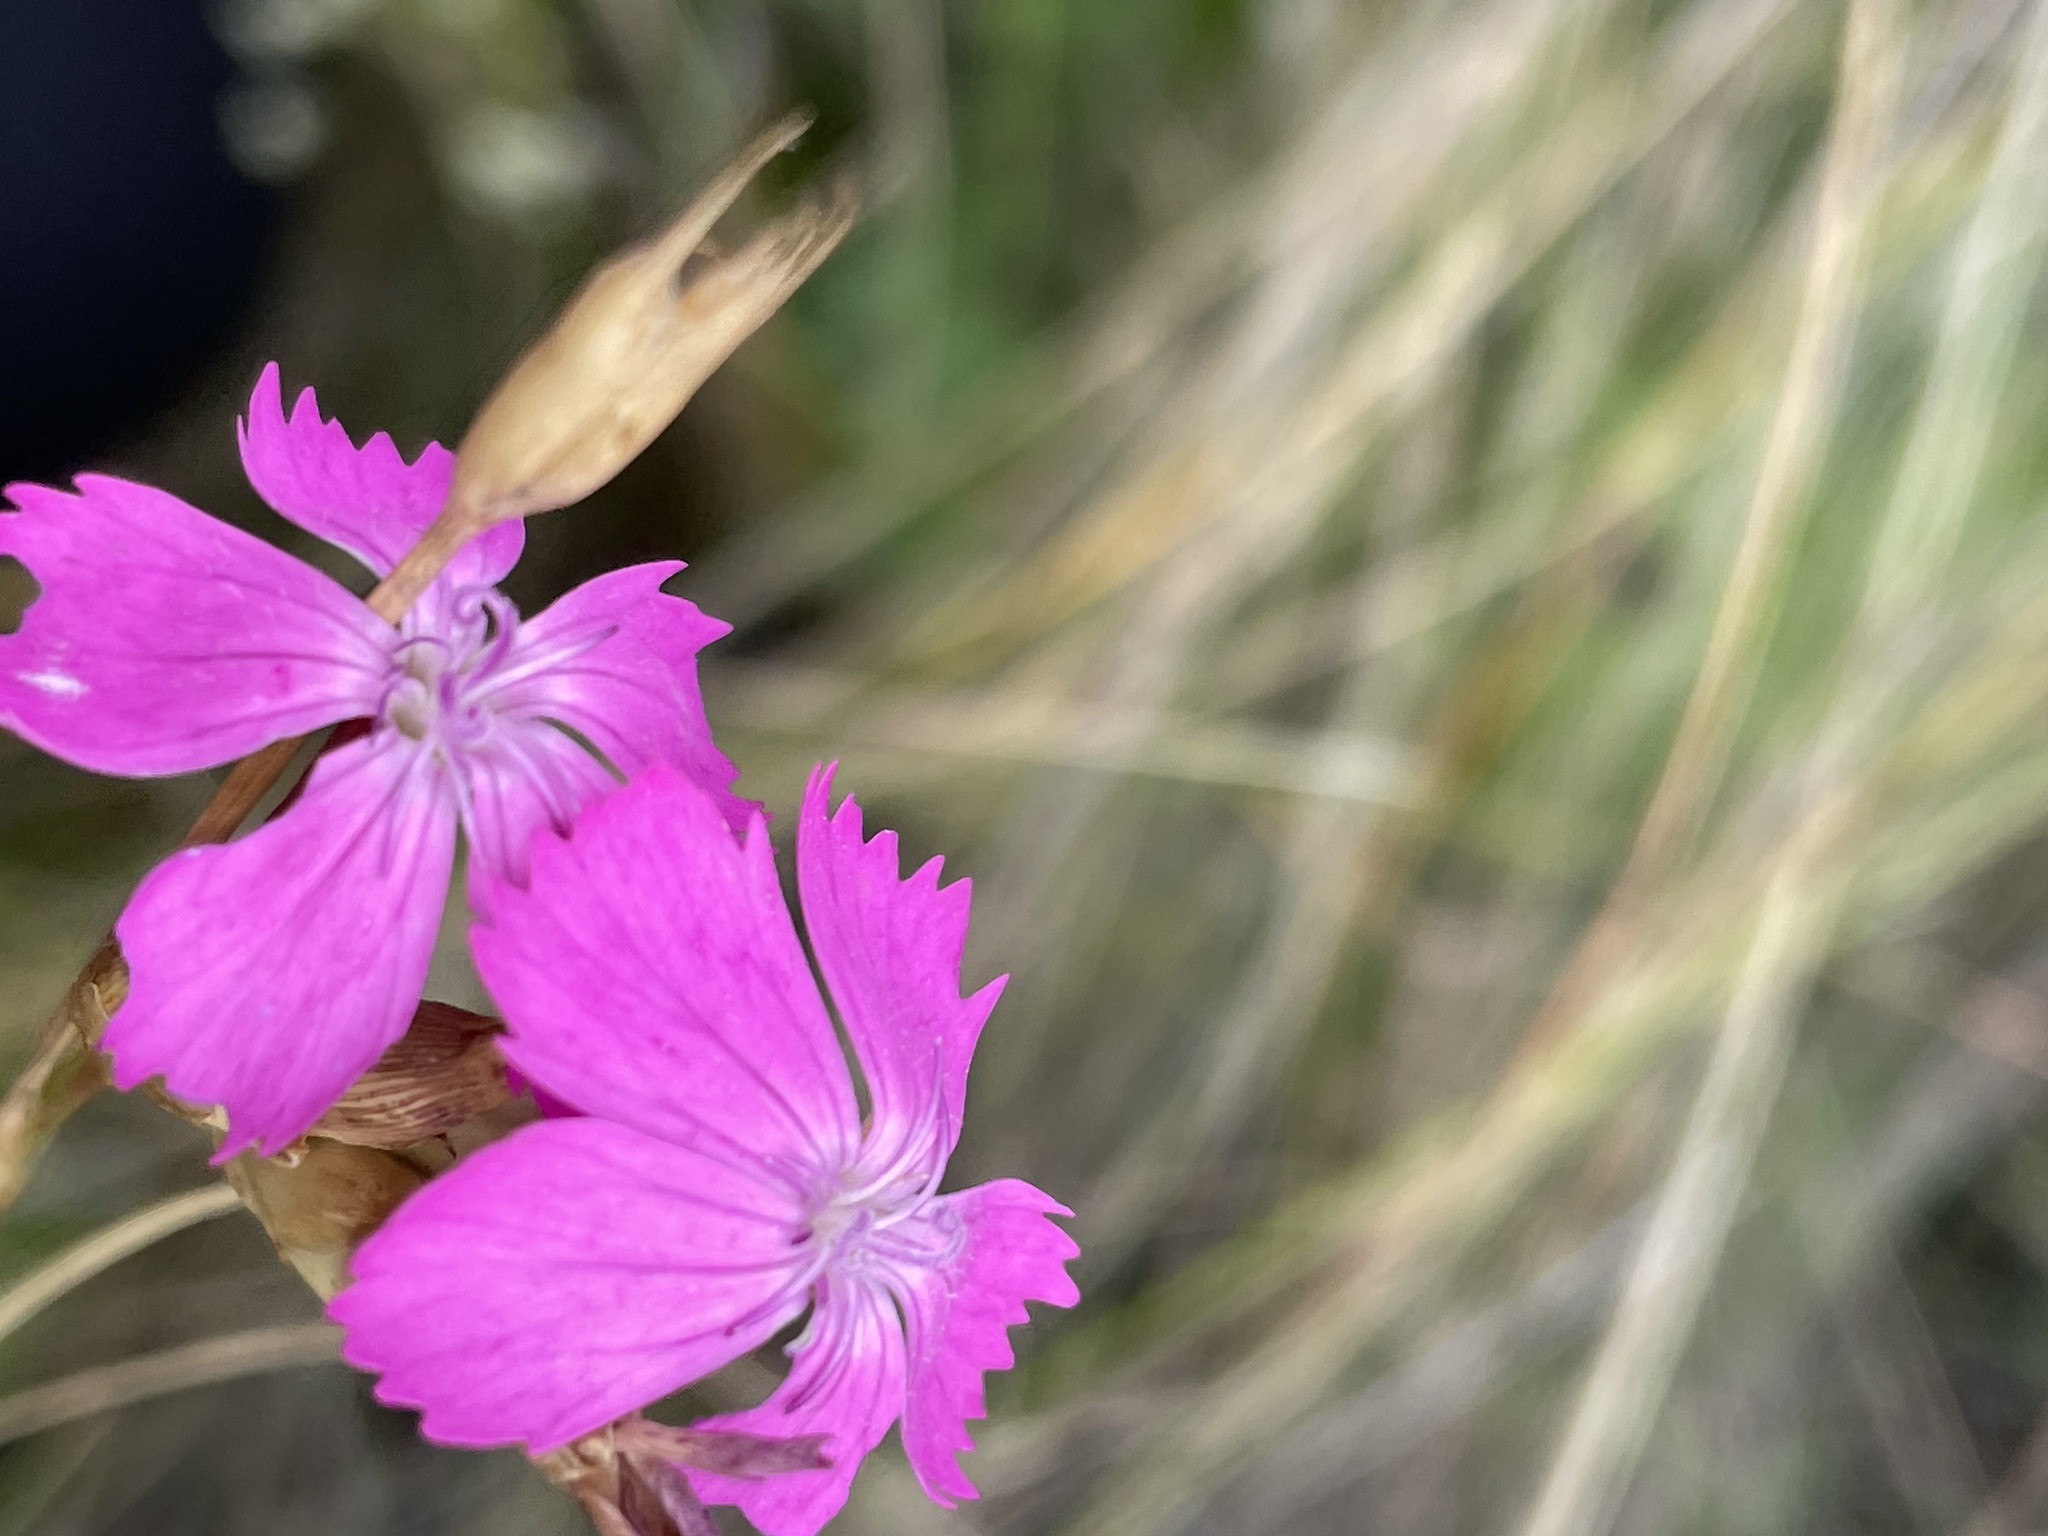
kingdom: Plantae
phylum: Tracheophyta
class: Magnoliopsida
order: Caryophyllales
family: Caryophyllaceae
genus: Dianthus
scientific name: Dianthus borbasii
